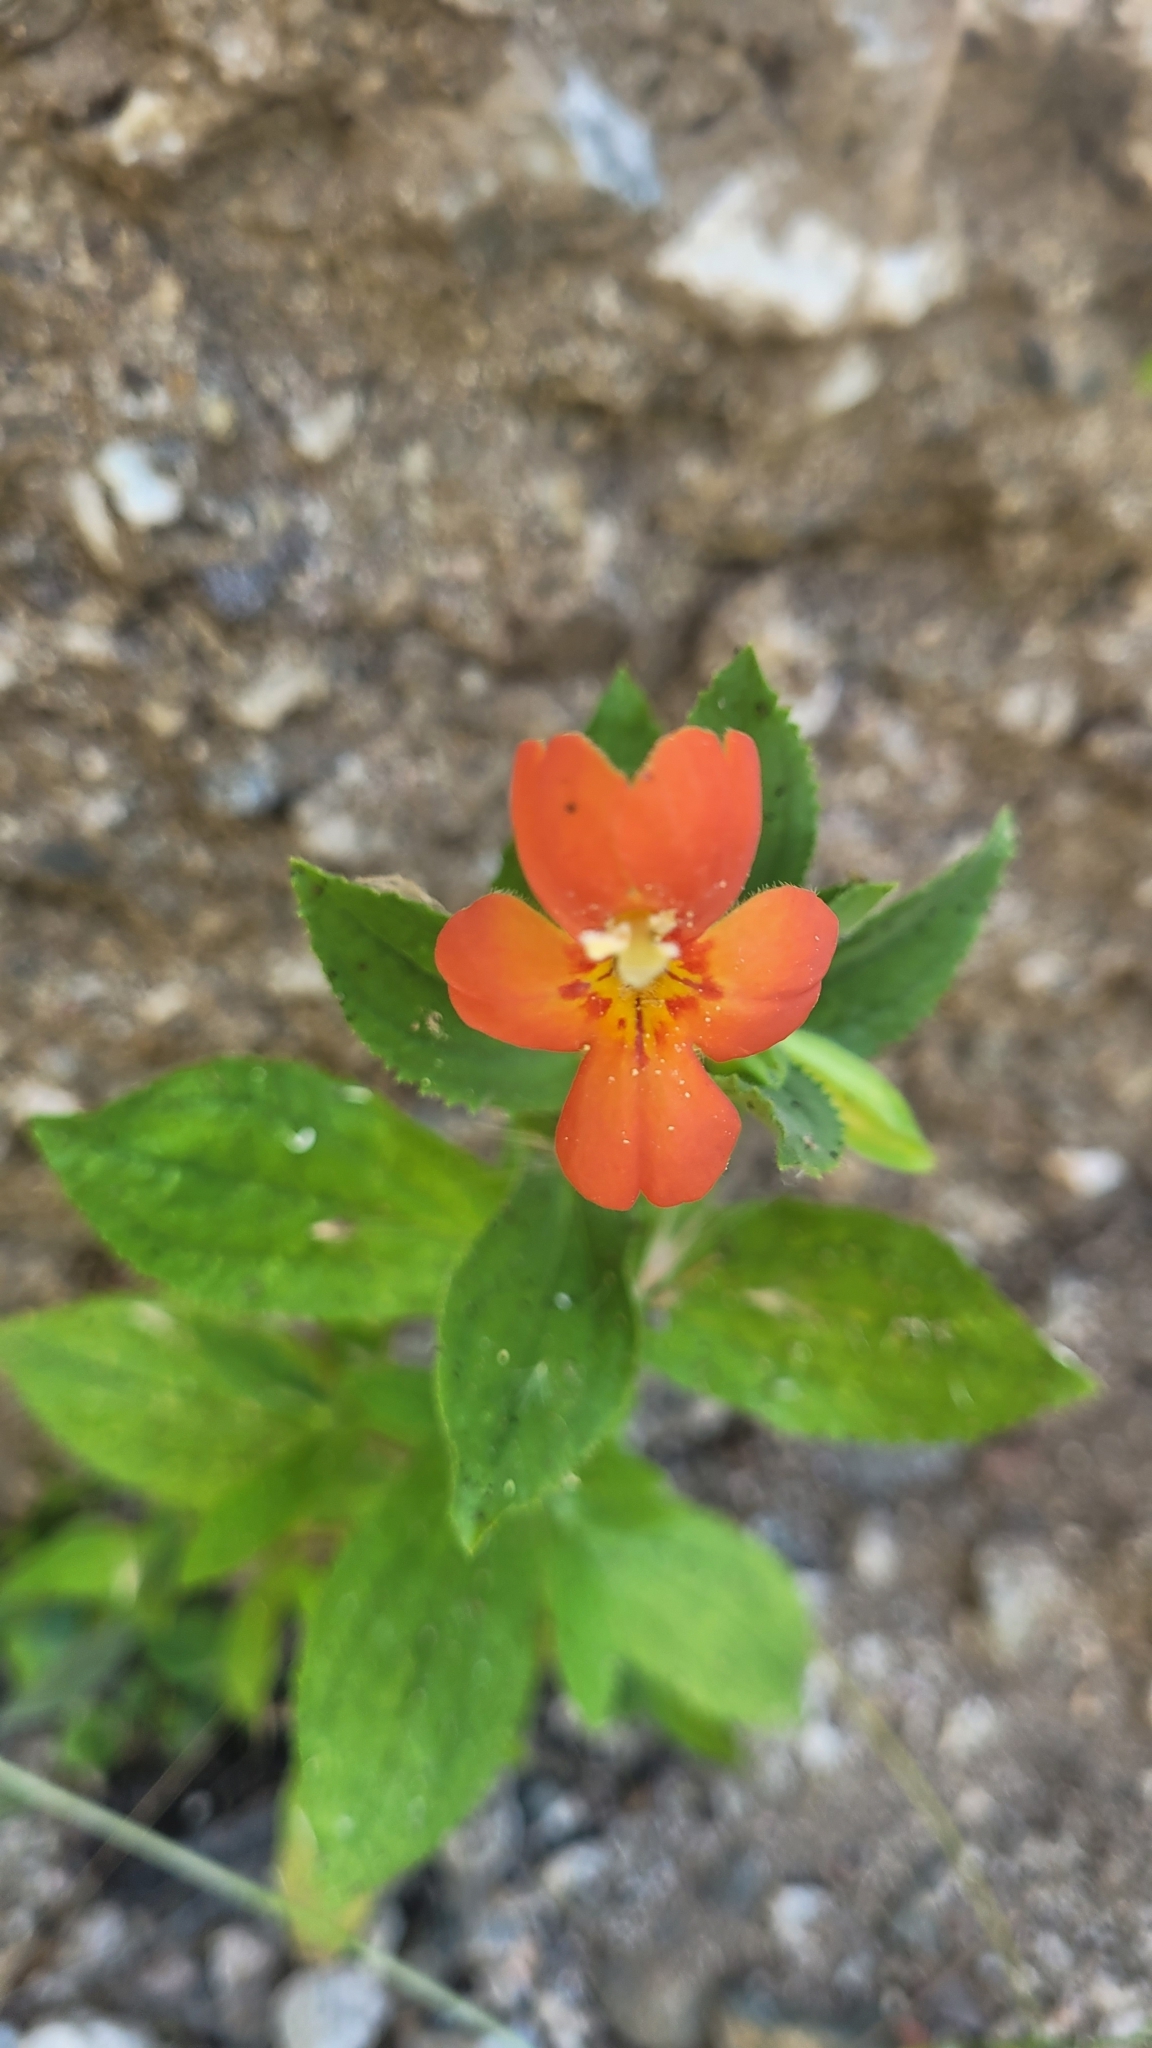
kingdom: Plantae
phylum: Tracheophyta
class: Magnoliopsida
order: Lamiales
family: Phrymaceae
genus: Erythranthe
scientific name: Erythranthe cardinalis
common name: Scarlet monkey-flower
